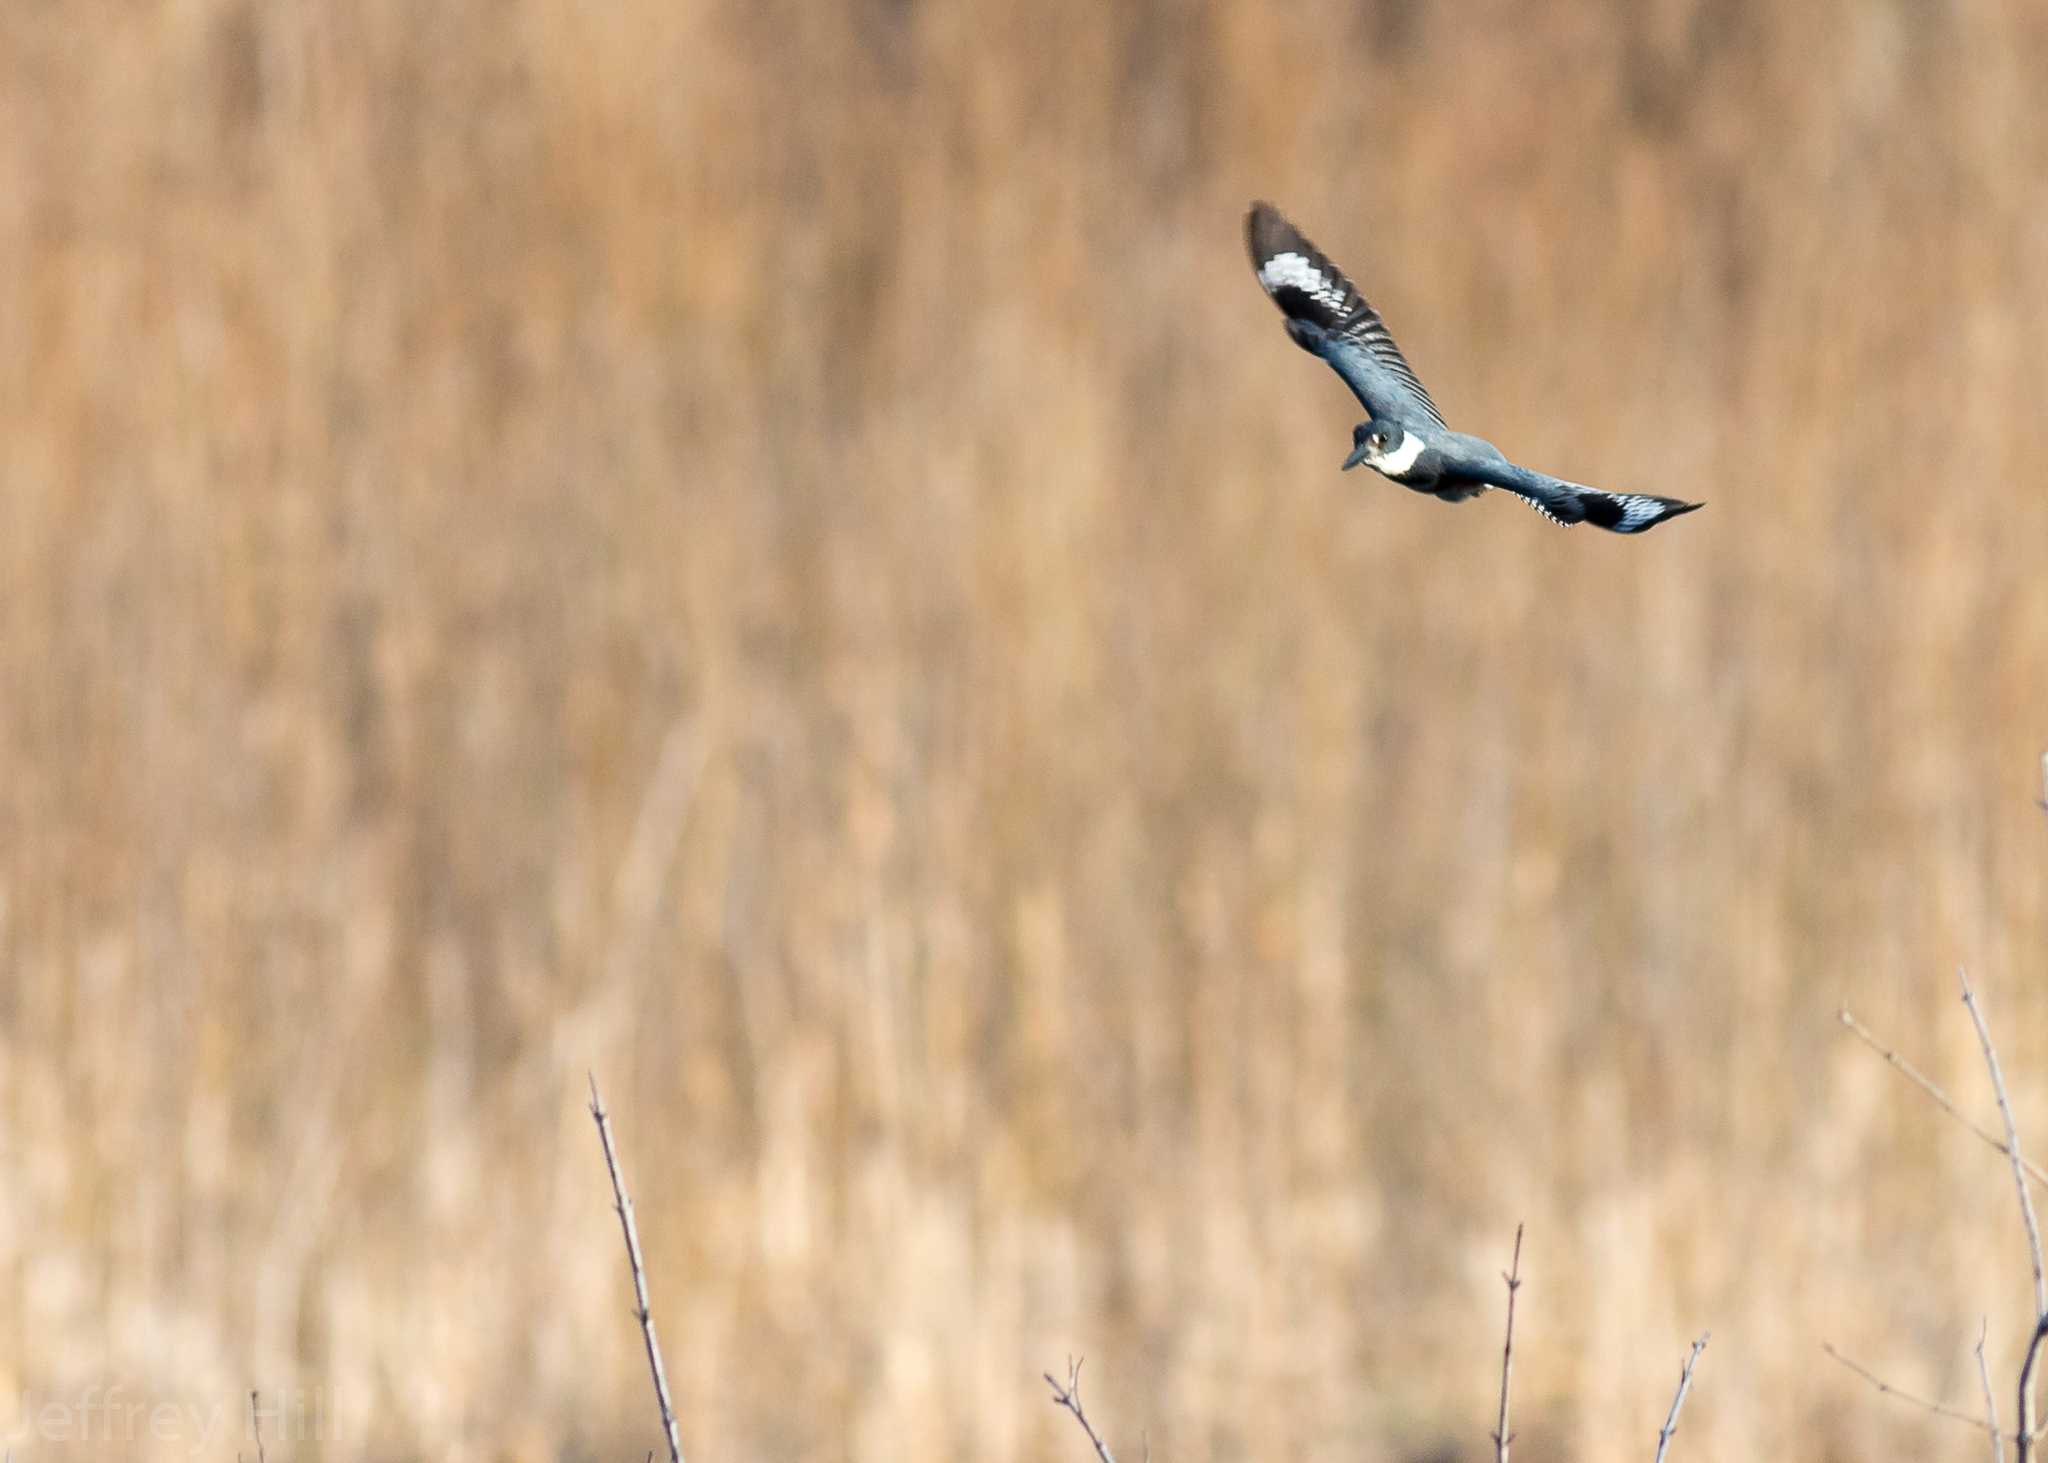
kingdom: Animalia
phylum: Chordata
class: Aves
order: Coraciiformes
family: Alcedinidae
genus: Megaceryle
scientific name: Megaceryle alcyon
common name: Belted kingfisher
